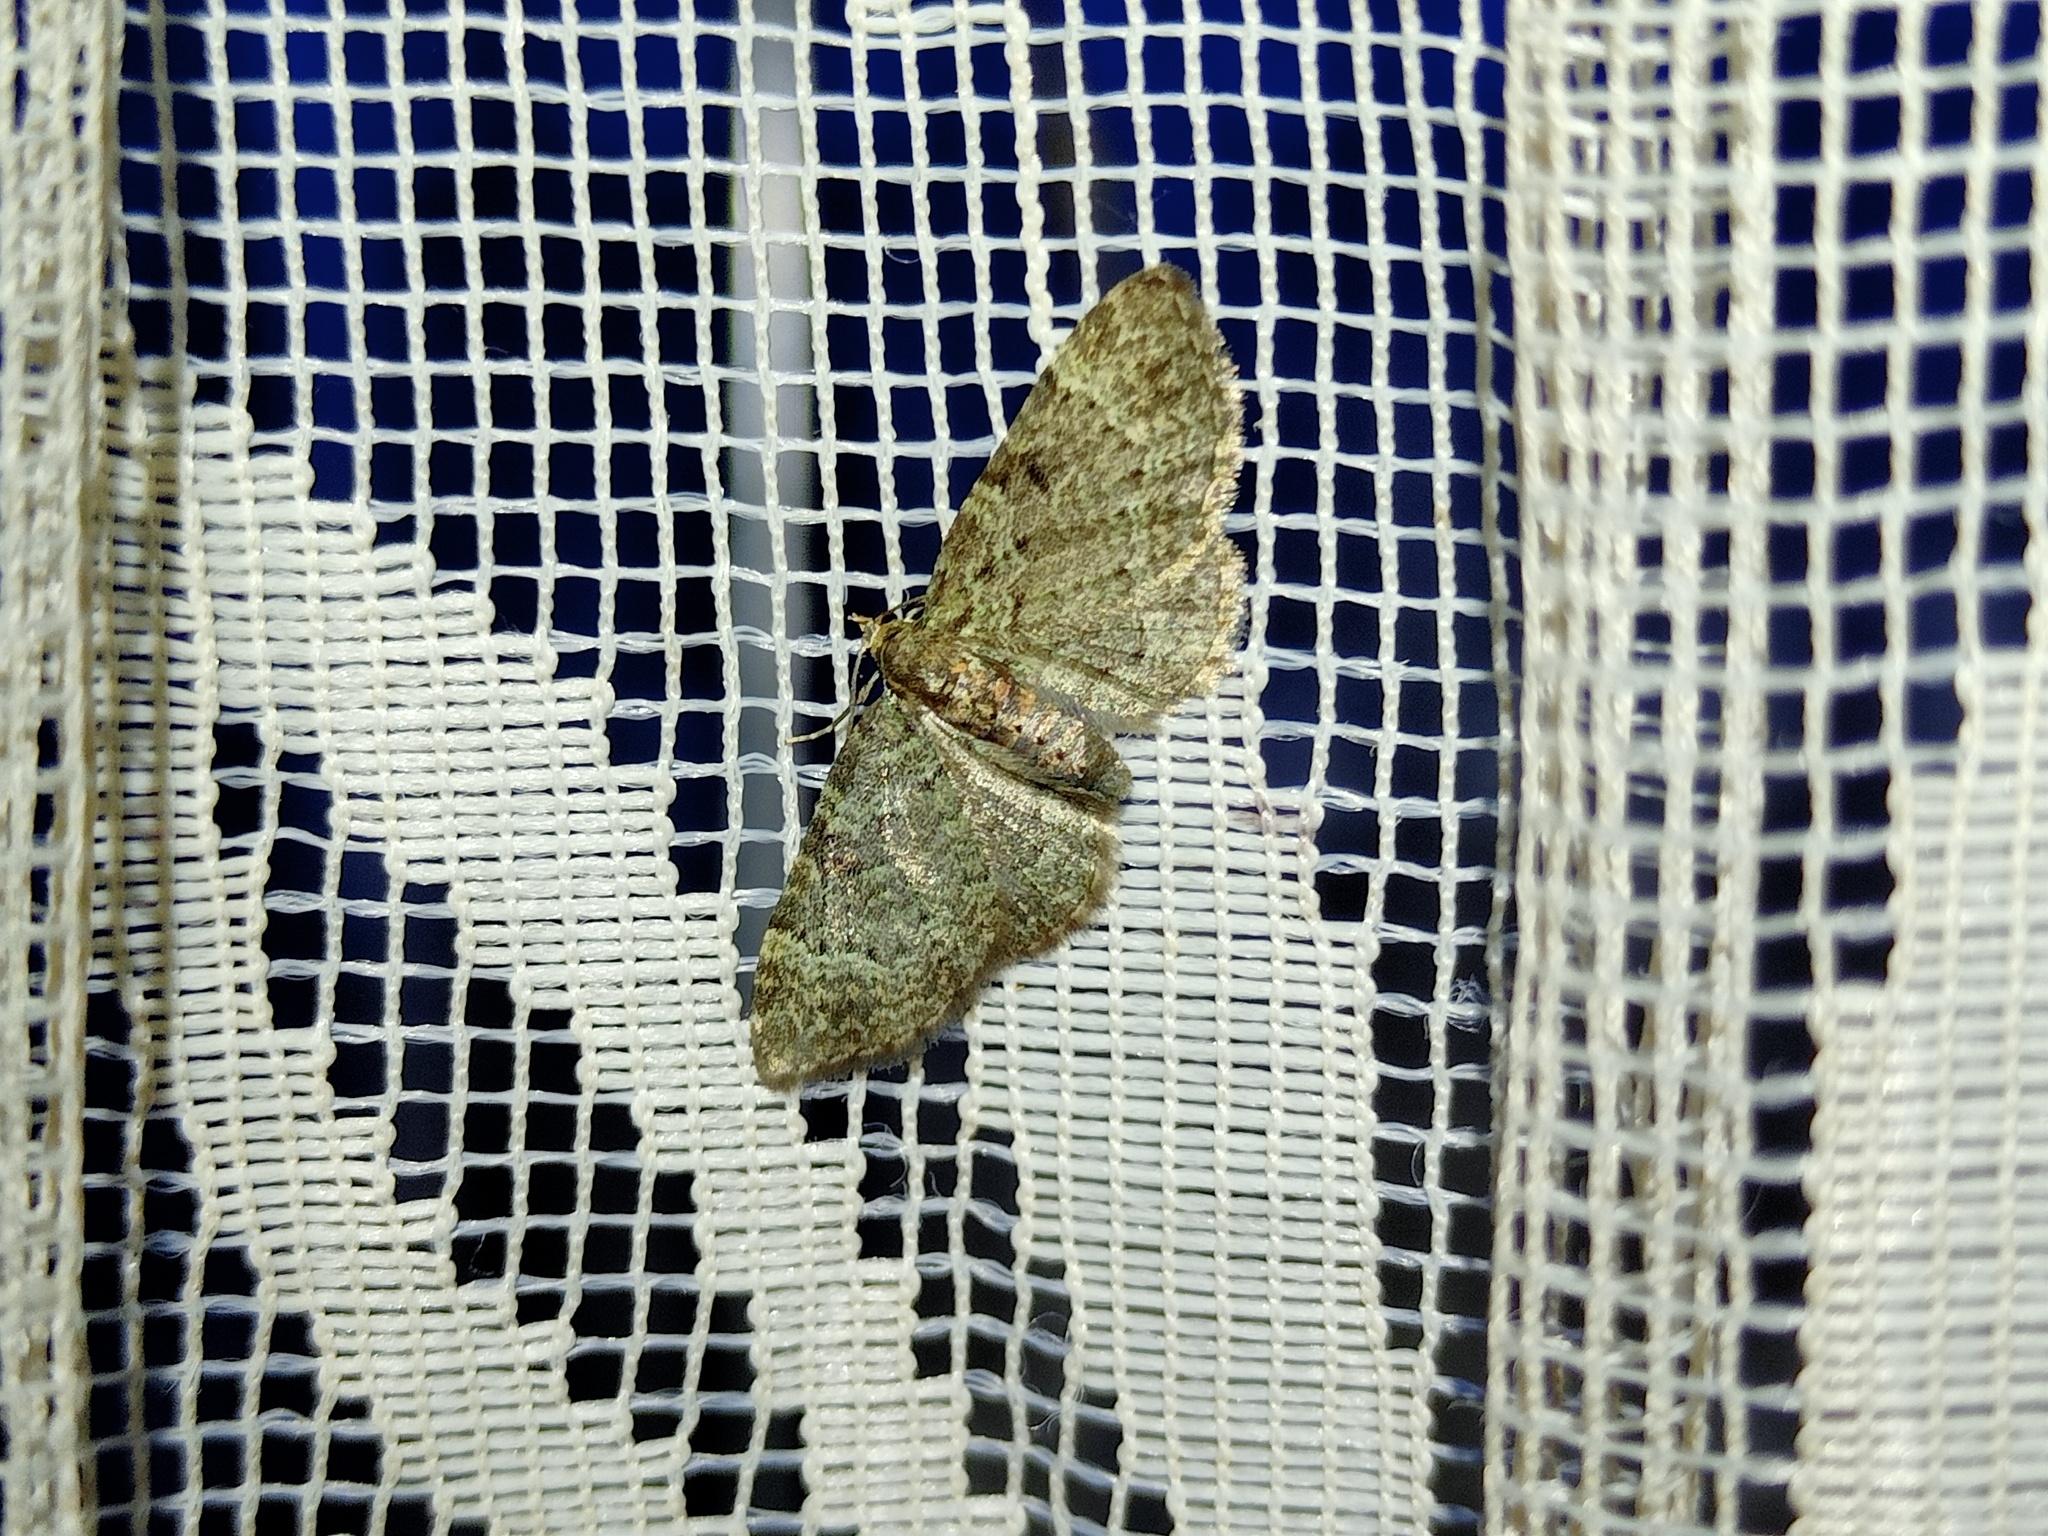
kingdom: Animalia
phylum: Arthropoda
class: Insecta
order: Lepidoptera
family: Geometridae
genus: Pasiphila
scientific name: Pasiphila rectangulata
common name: Green pug
